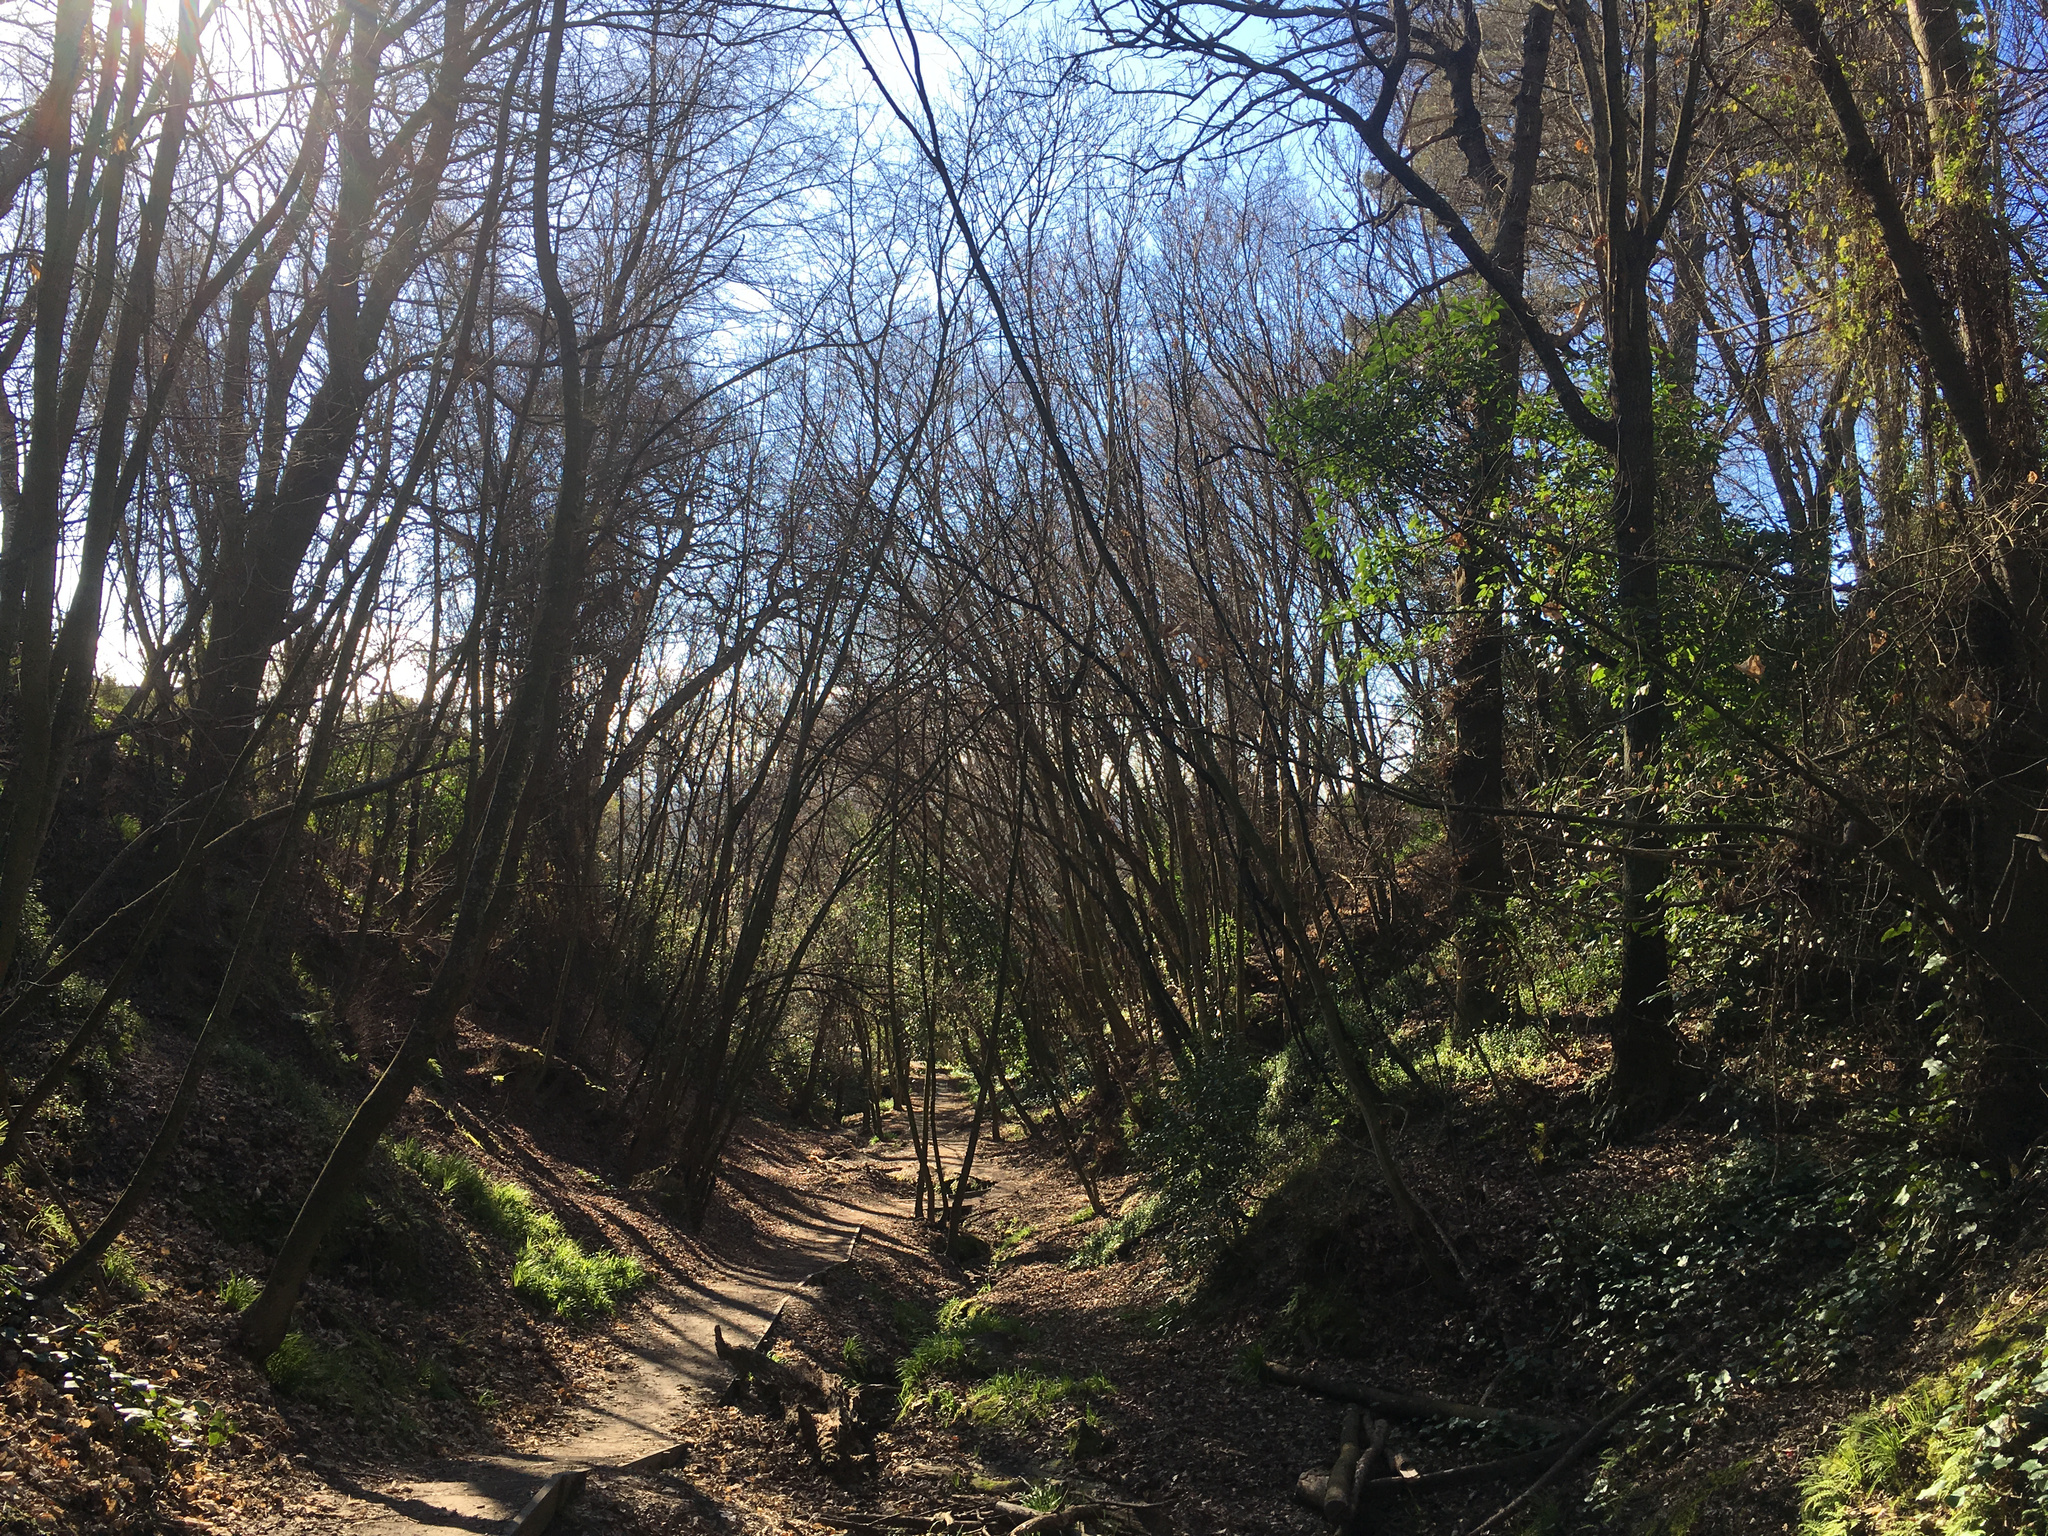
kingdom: Plantae
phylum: Tracheophyta
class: Magnoliopsida
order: Sapindales
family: Sapindaceae
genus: Acer
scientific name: Acer pseudoplatanus
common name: Sycamore
